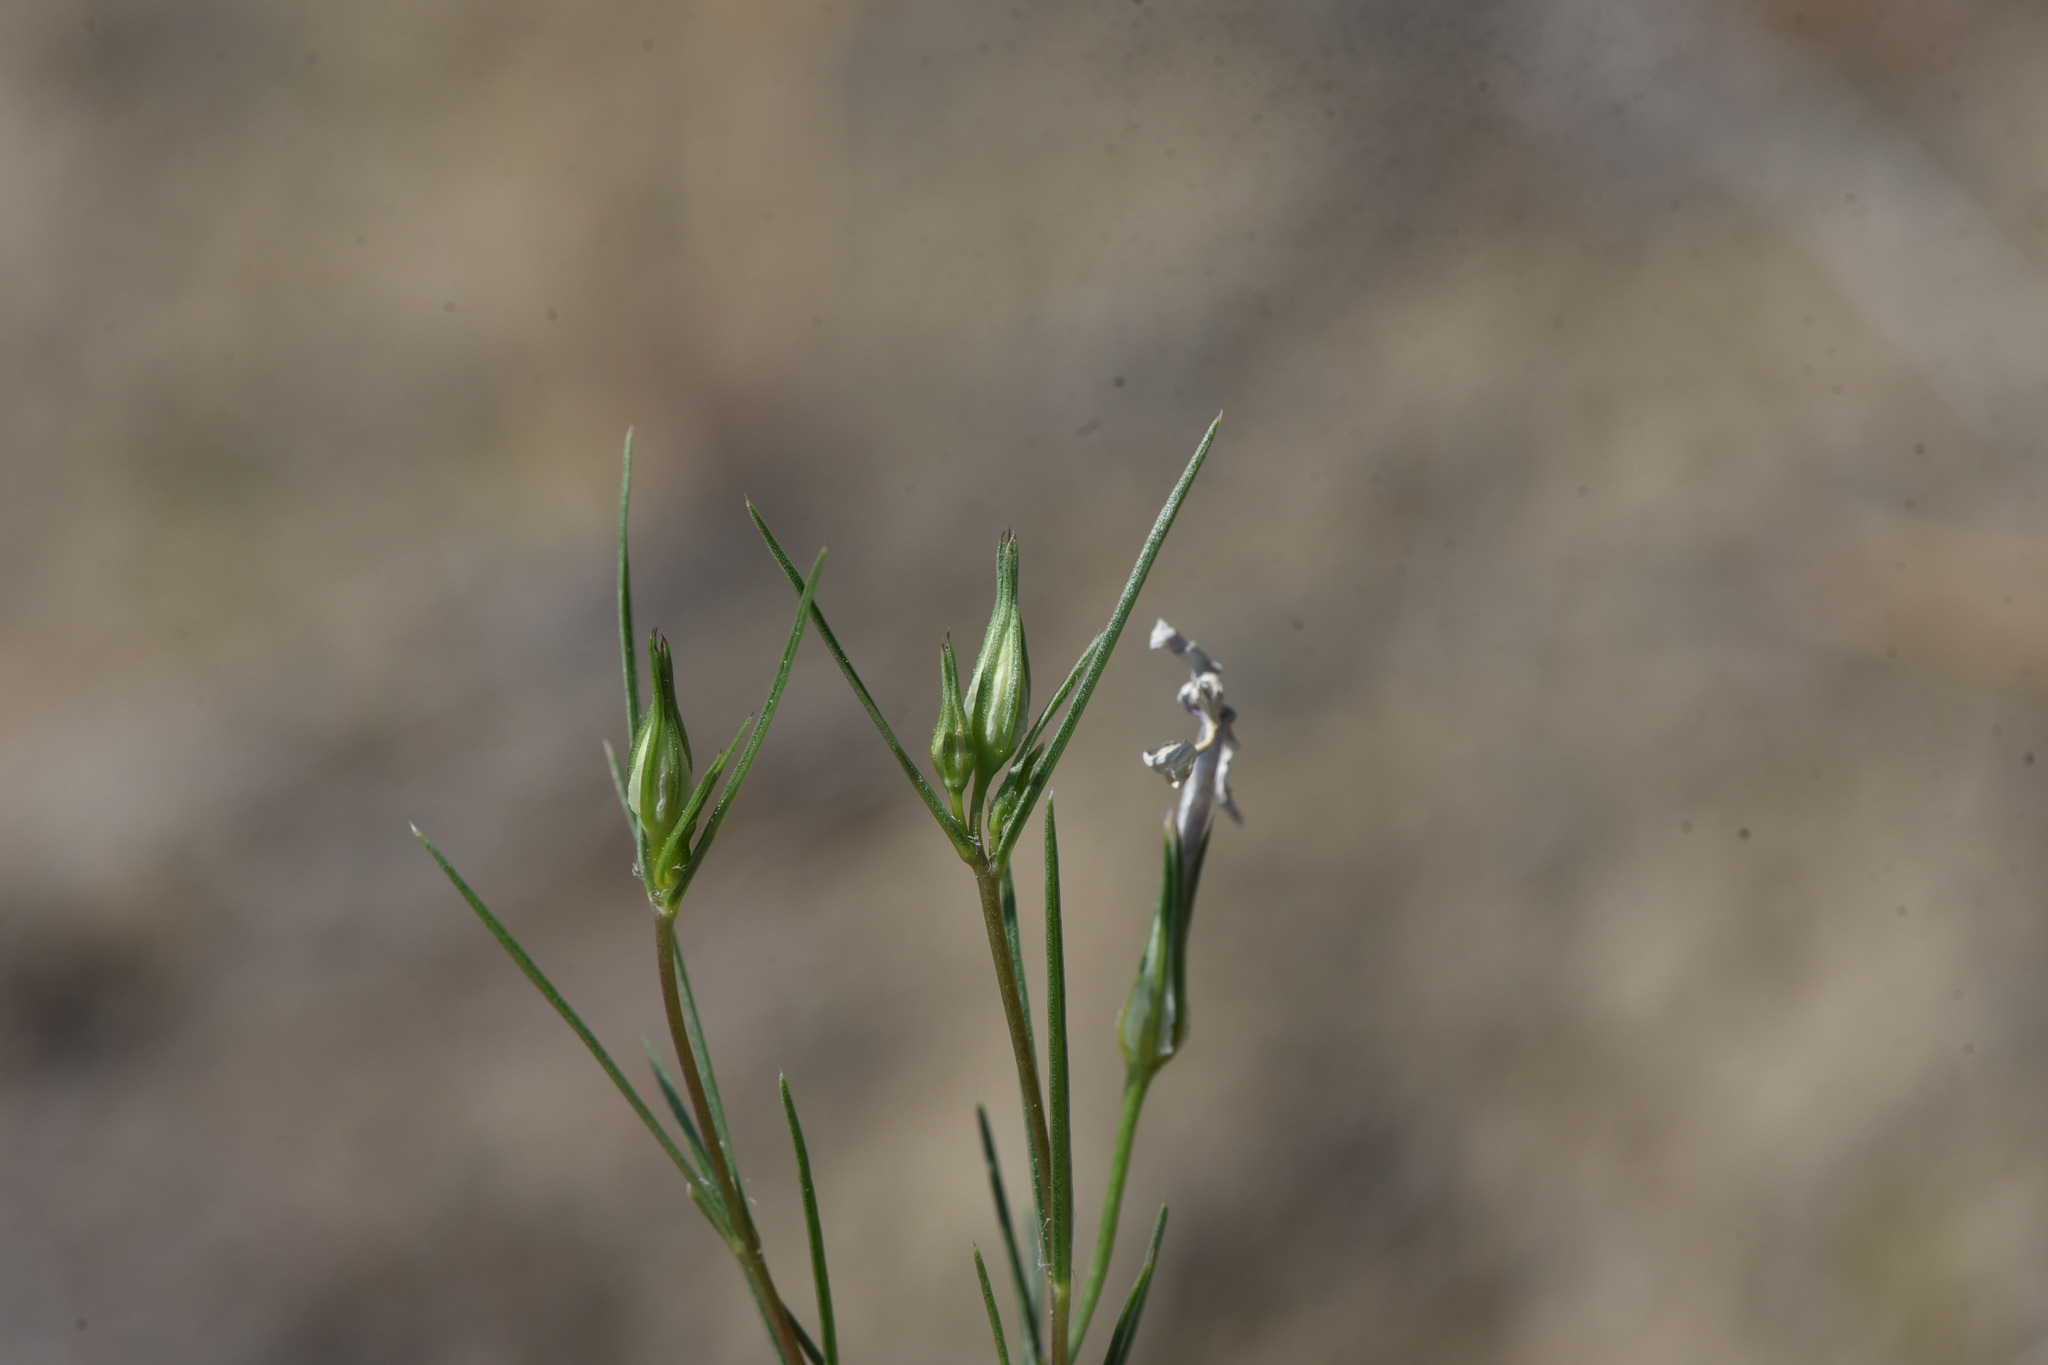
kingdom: Plantae
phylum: Tracheophyta
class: Magnoliopsida
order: Ericales
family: Polemoniaceae
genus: Phlox
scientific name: Phlox longifolia
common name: Longleaf phlox
